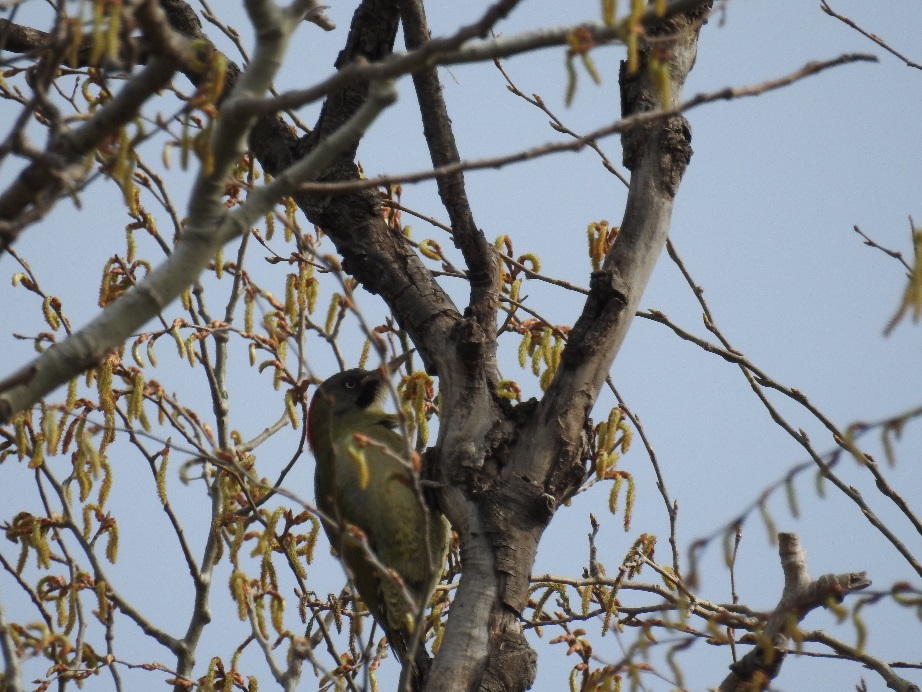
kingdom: Animalia
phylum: Chordata
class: Aves
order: Piciformes
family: Picidae
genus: Picus
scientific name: Picus vaillantii
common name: Levaillant's woodpecker
